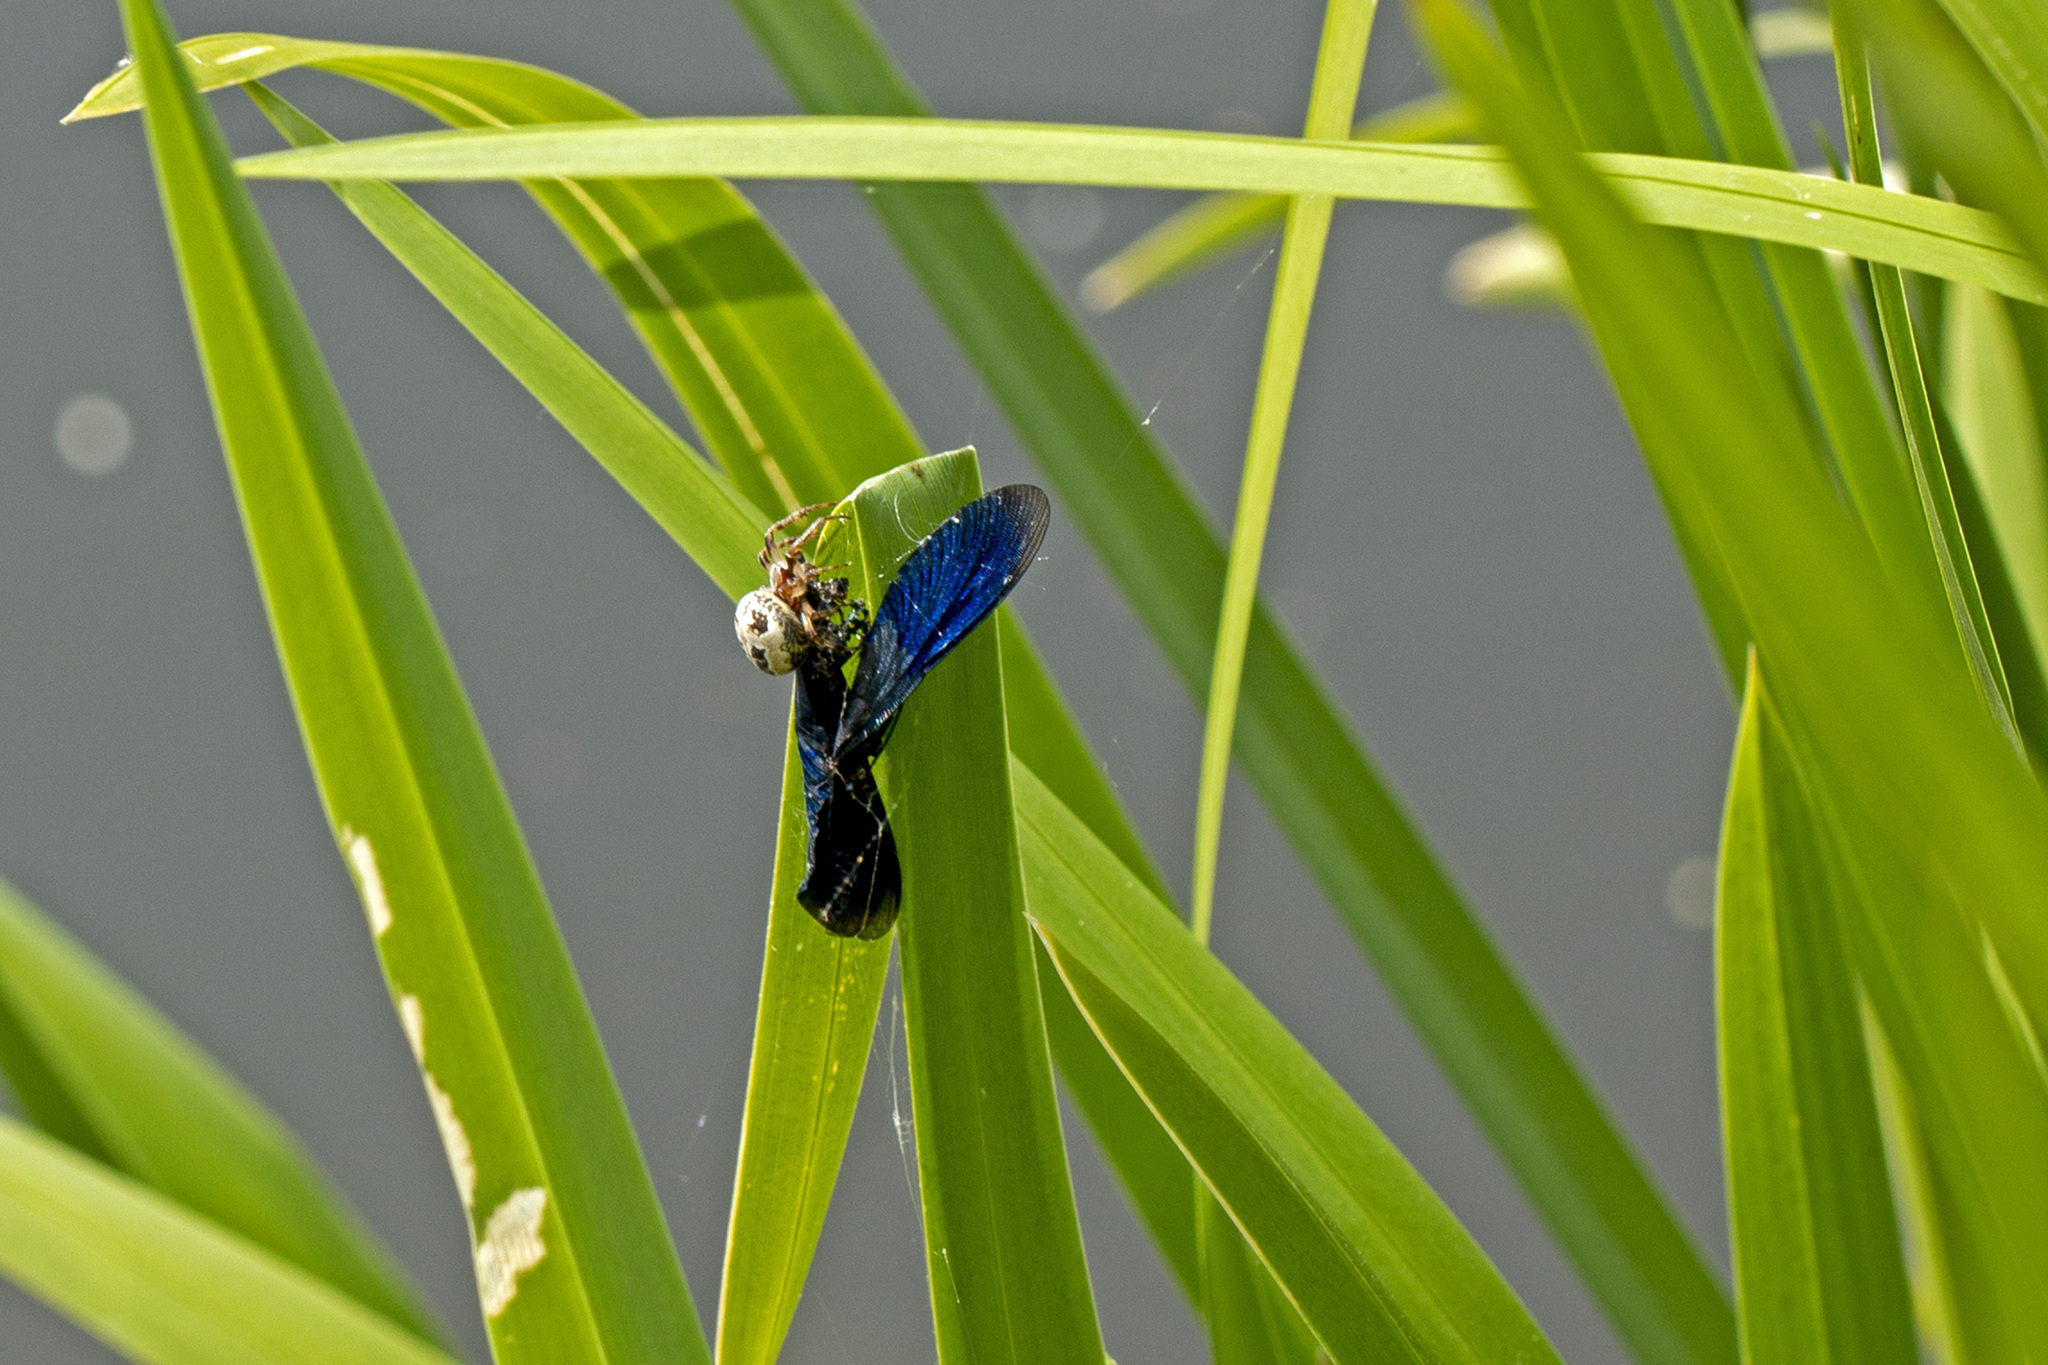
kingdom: Animalia
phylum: Arthropoda
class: Arachnida
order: Araneae
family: Araneidae
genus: Larinioides
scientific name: Larinioides cornutus
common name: Furrow orbweaver
